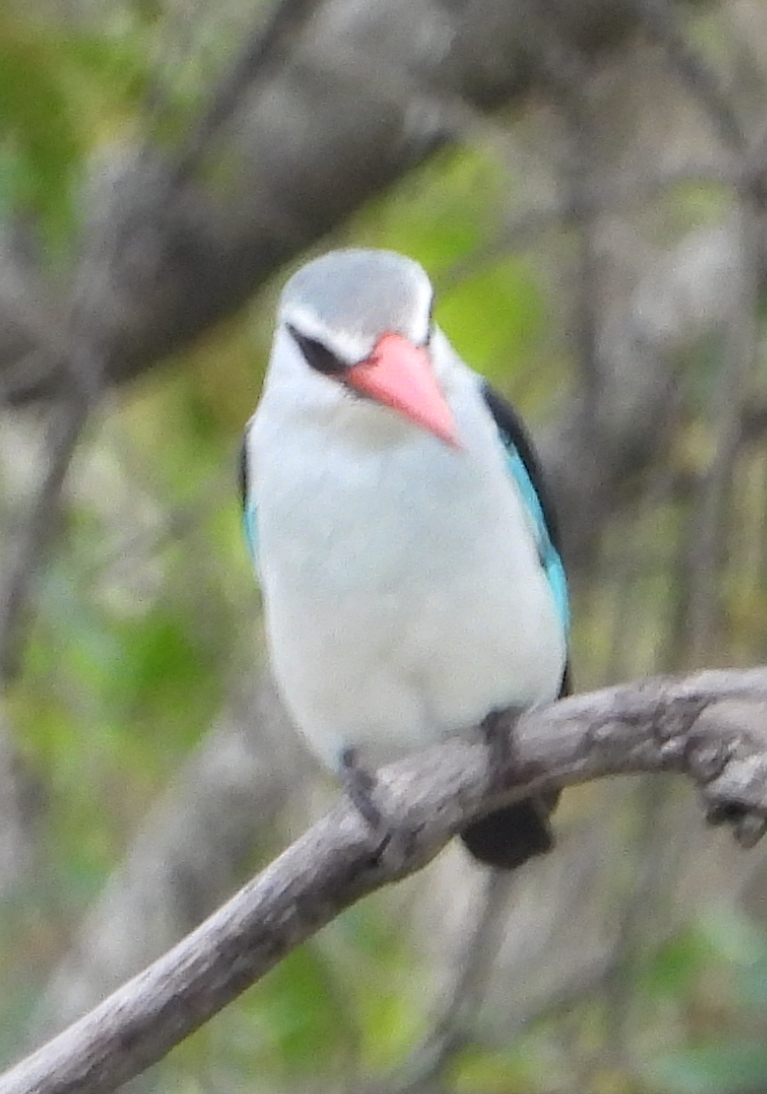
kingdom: Animalia
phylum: Chordata
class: Aves
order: Coraciiformes
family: Alcedinidae
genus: Halcyon
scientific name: Halcyon senegalensis
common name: Woodland kingfisher
